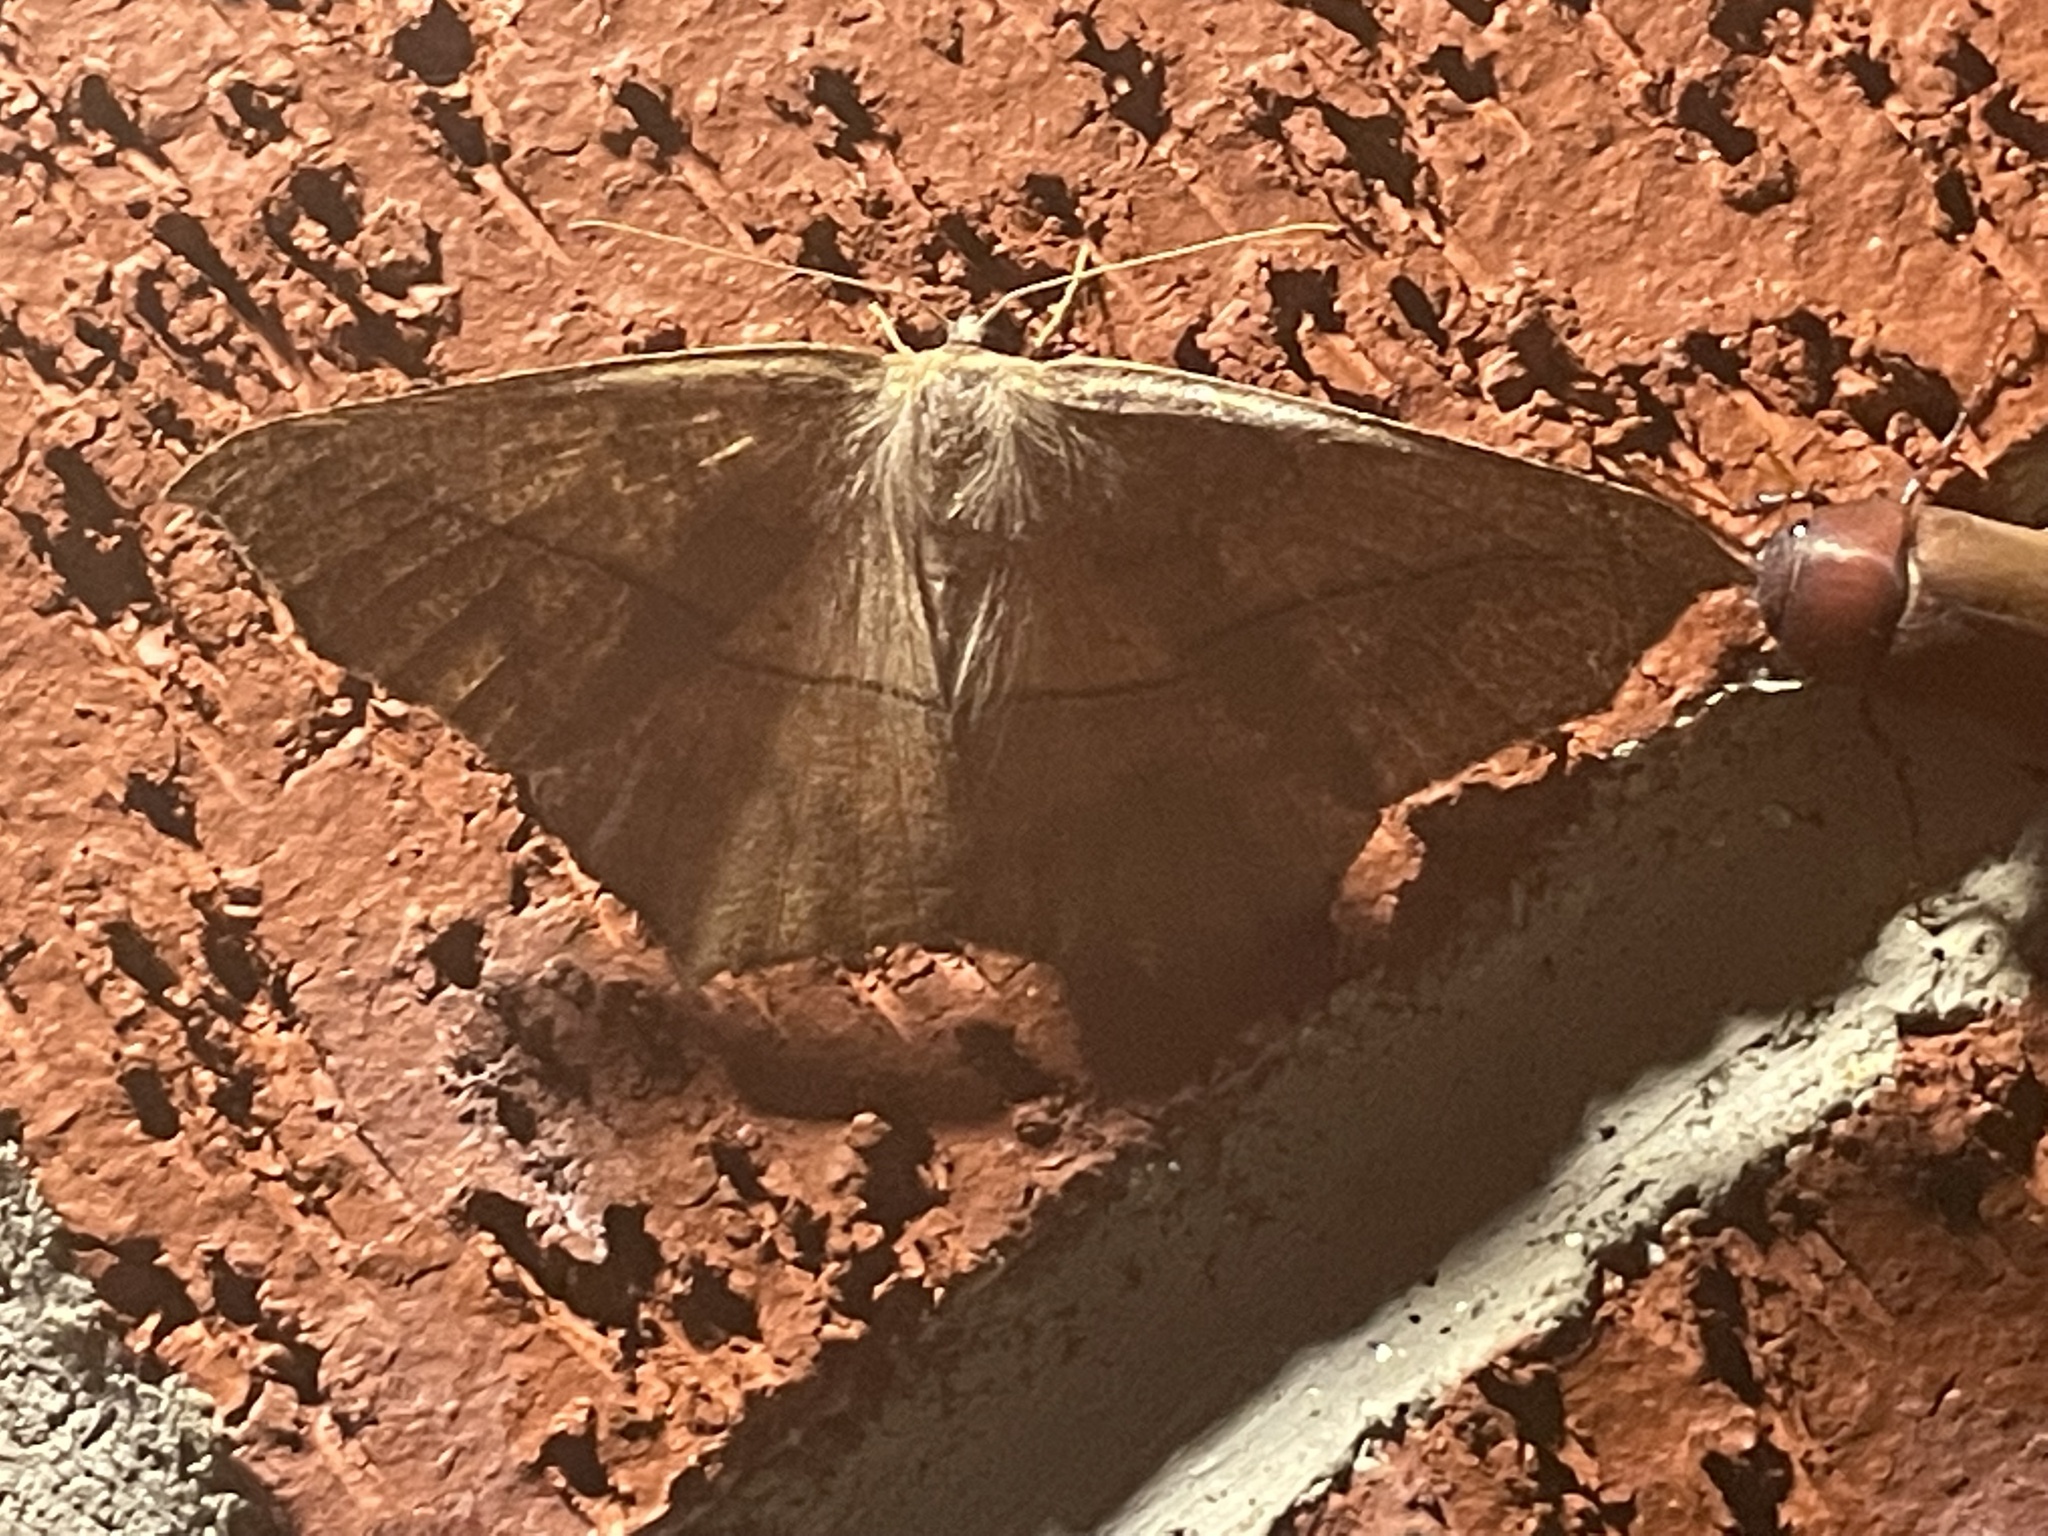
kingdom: Animalia
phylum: Arthropoda
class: Insecta
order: Lepidoptera
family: Geometridae
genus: Prochoerodes
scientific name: Prochoerodes lineola
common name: Large maple spanworm
